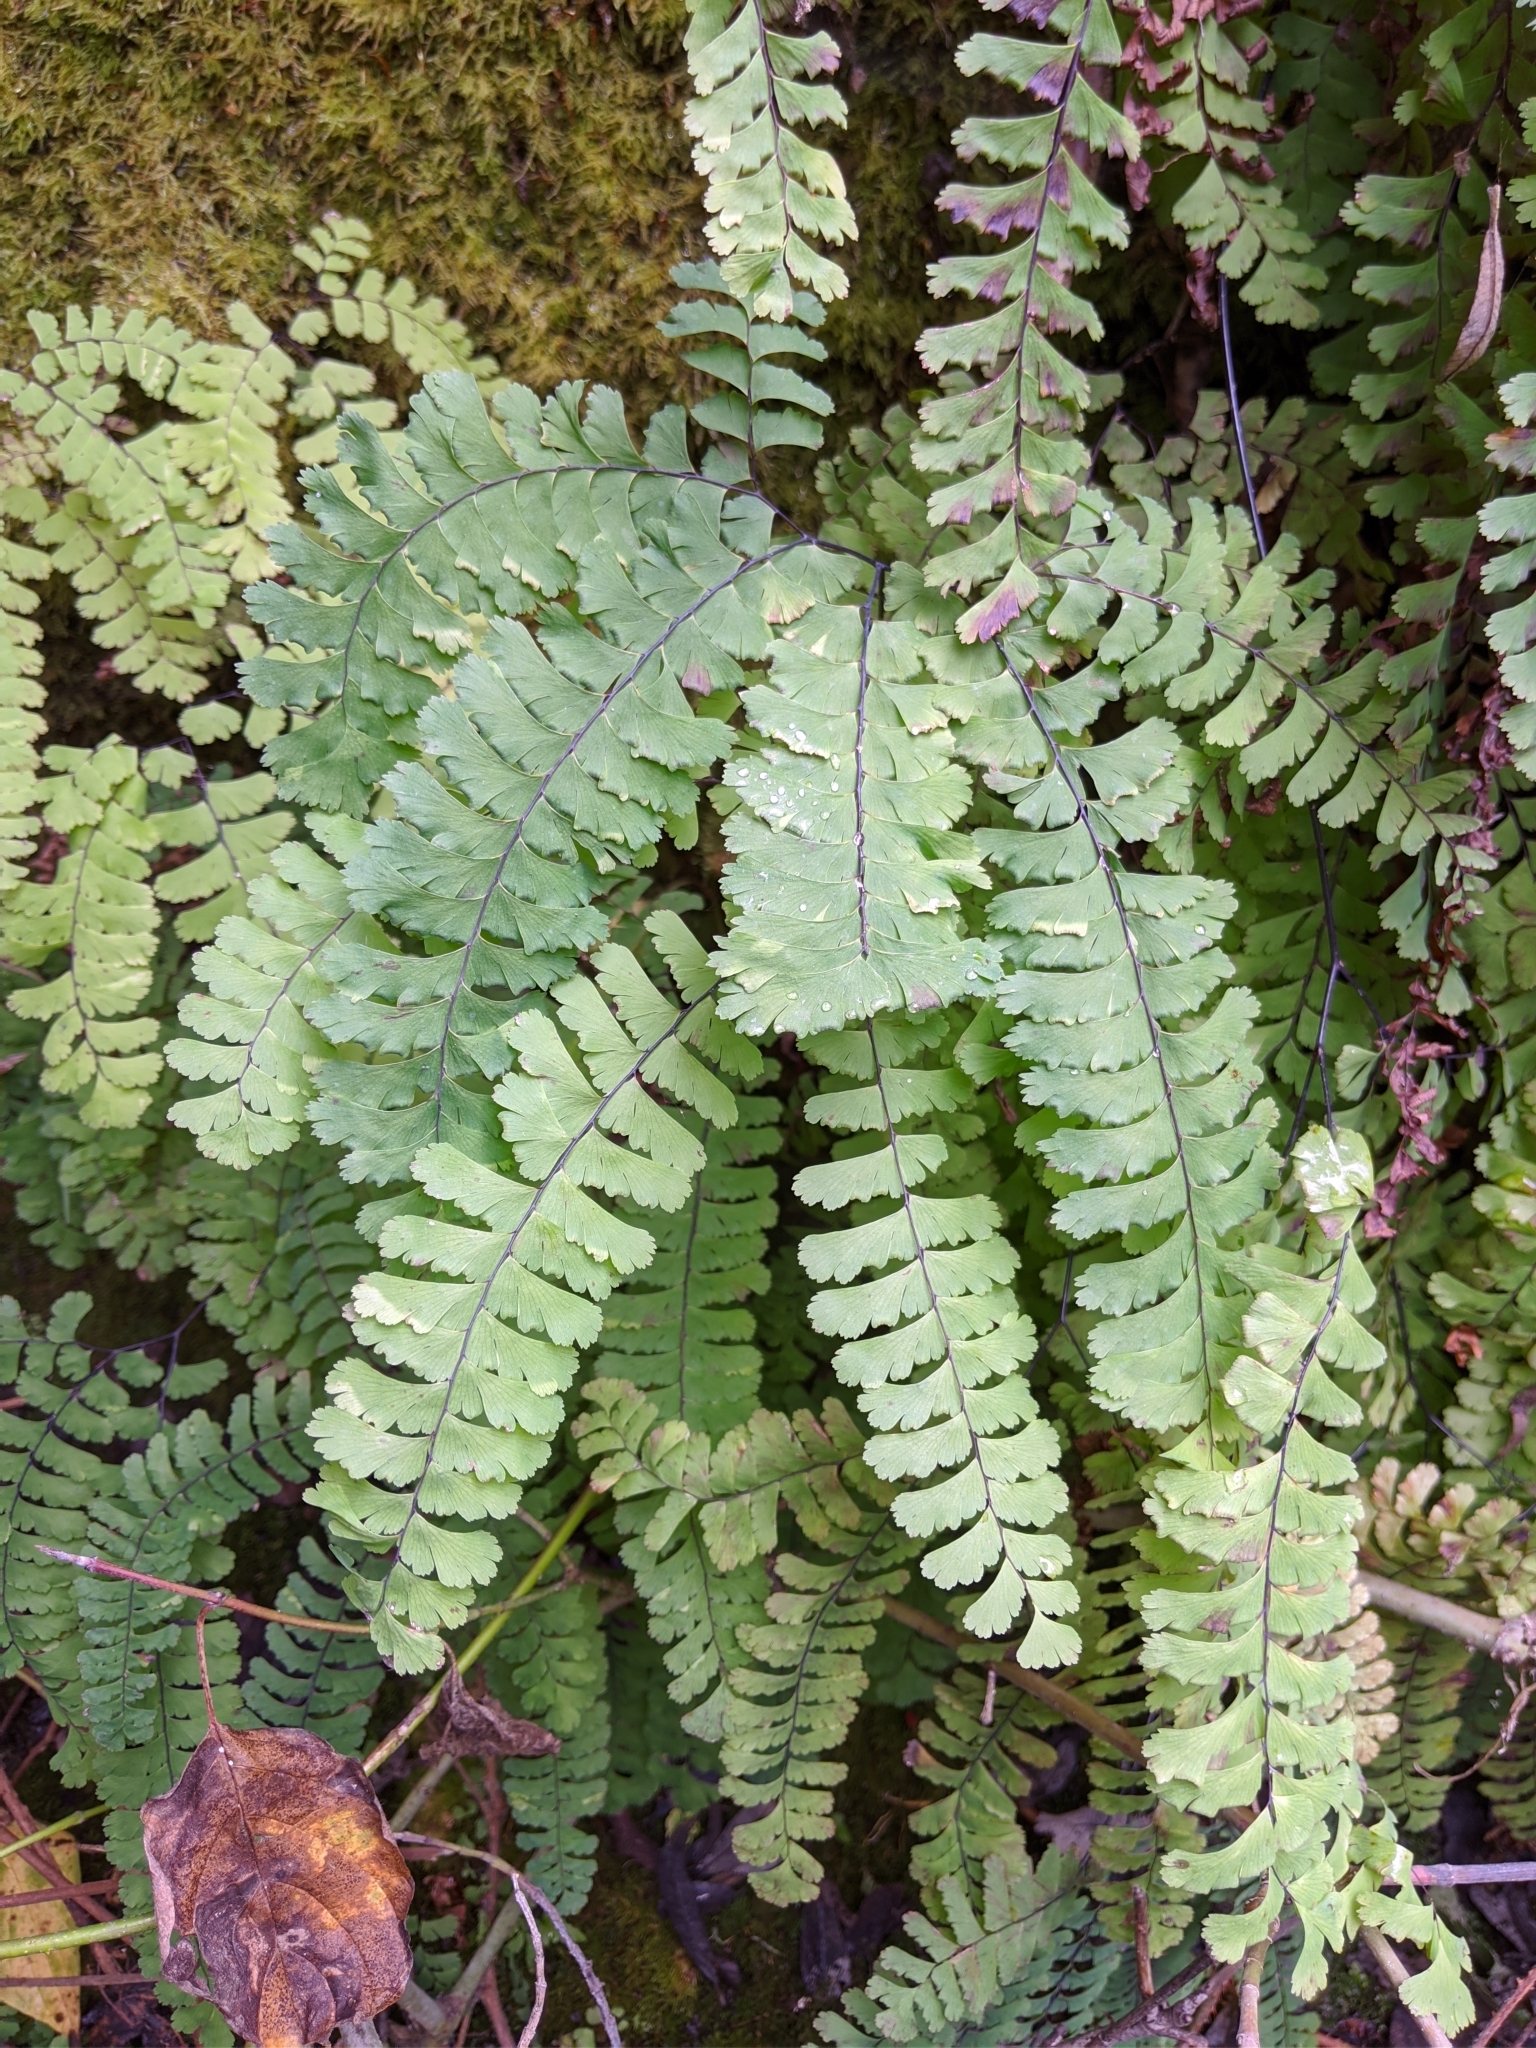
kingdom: Plantae
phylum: Tracheophyta
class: Polypodiopsida
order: Polypodiales
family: Pteridaceae
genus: Adiantum
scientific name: Adiantum aleuticum
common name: Aleutian maidenhair fern
